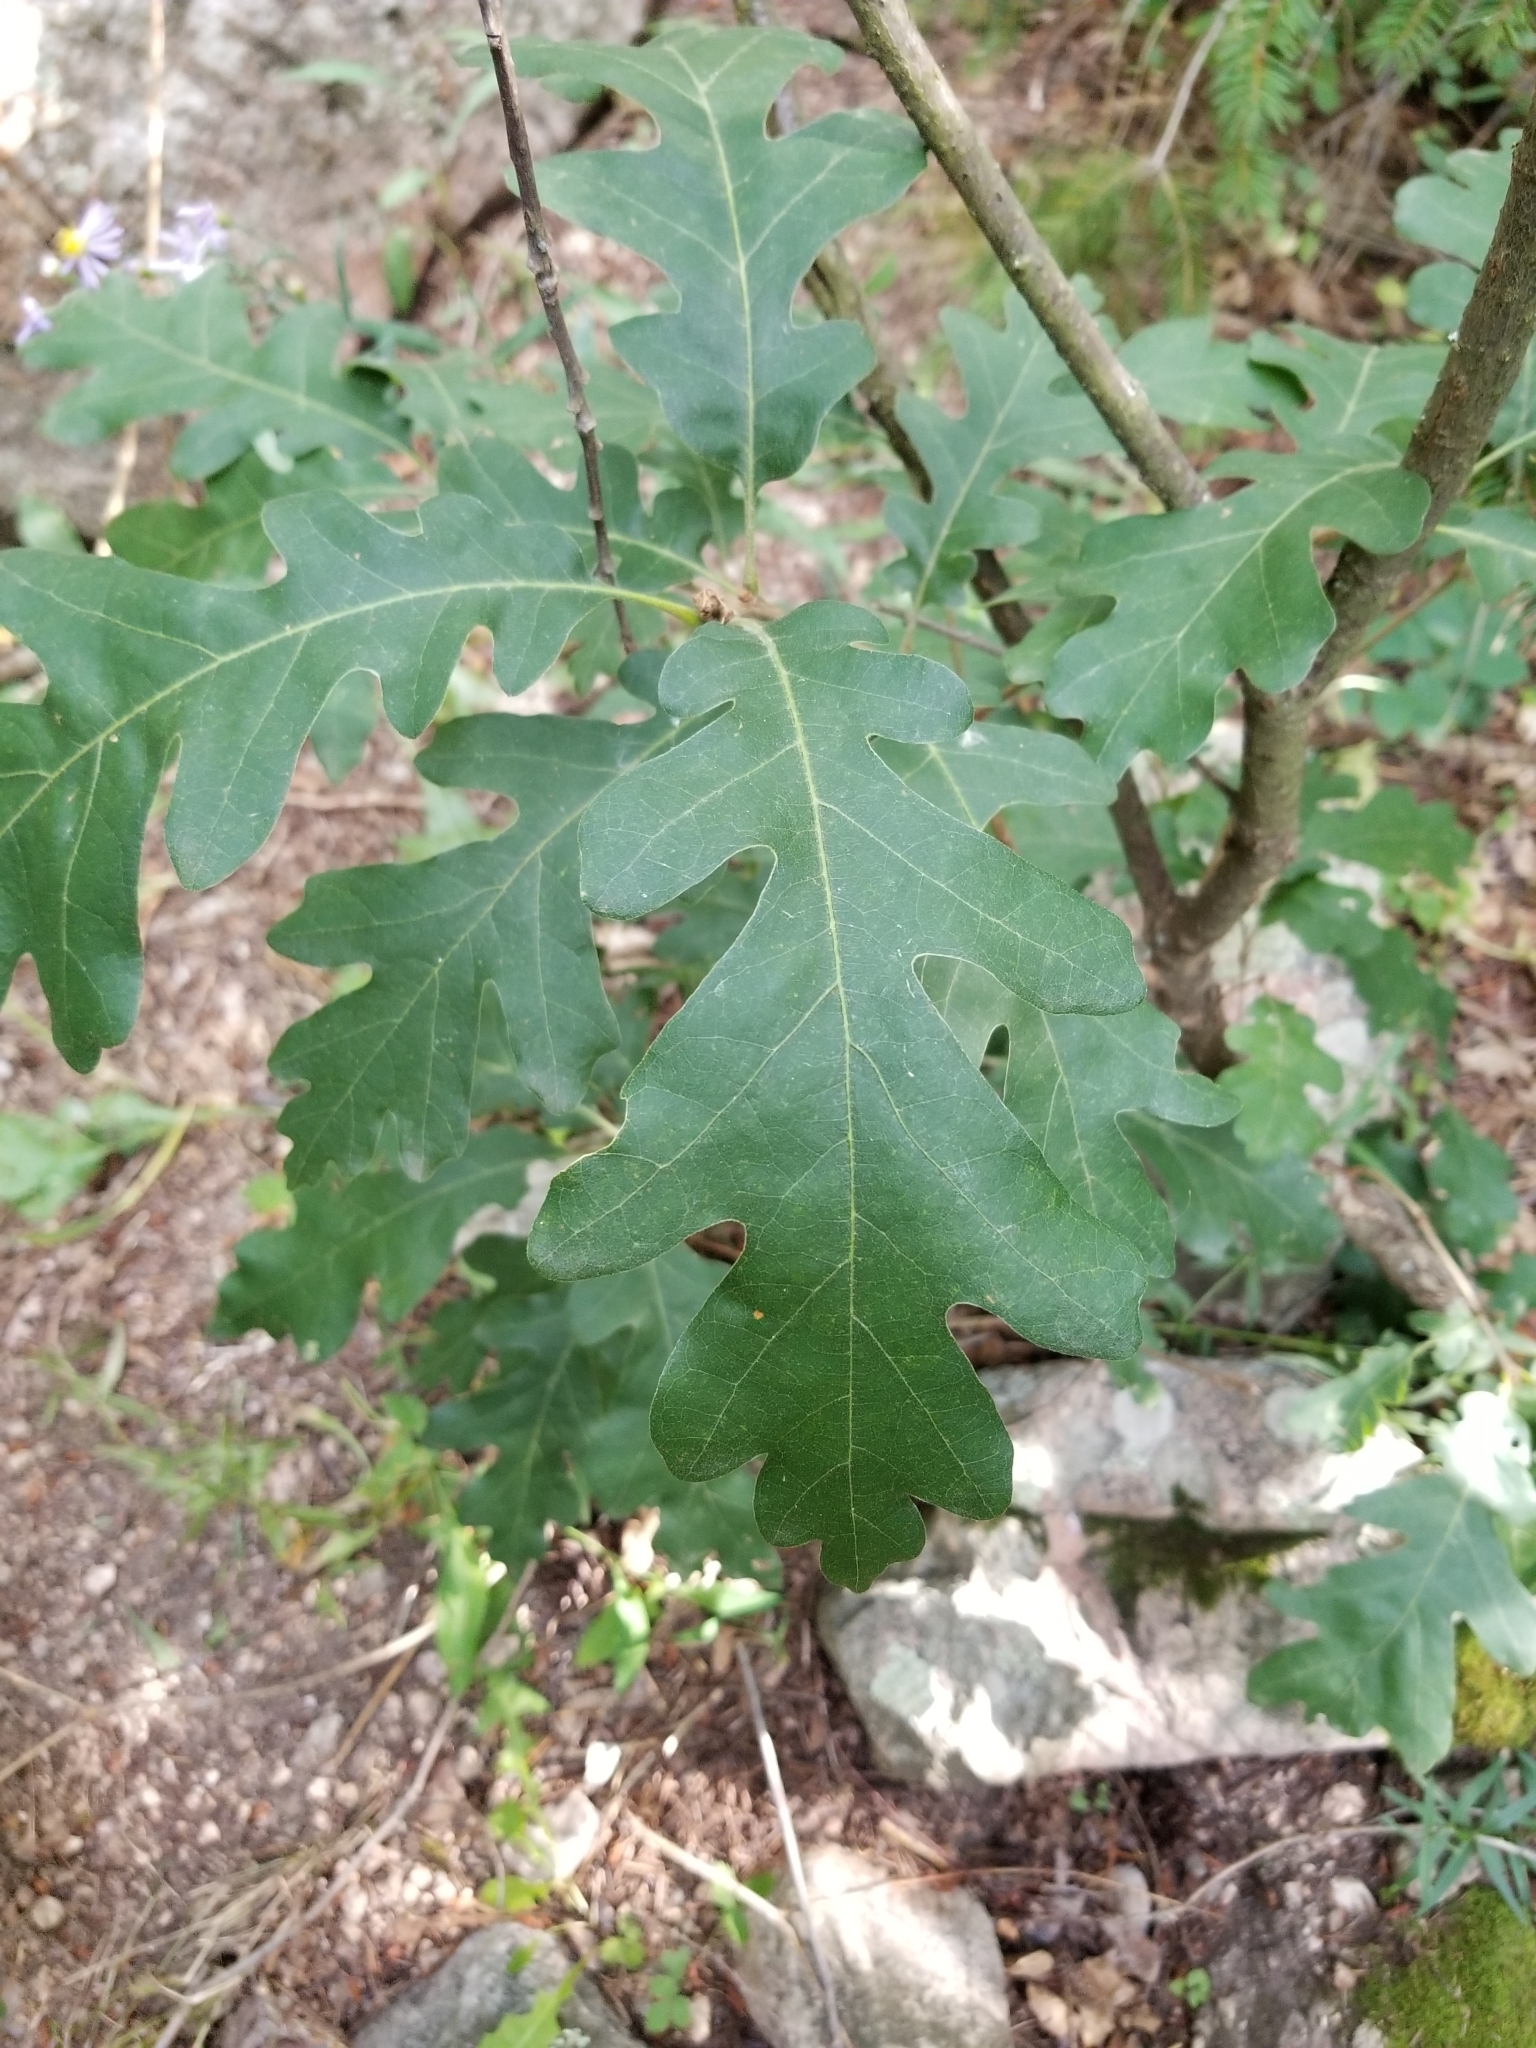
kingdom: Plantae
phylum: Tracheophyta
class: Magnoliopsida
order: Fagales
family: Fagaceae
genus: Quercus
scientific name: Quercus gambelii
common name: Gambel oak
